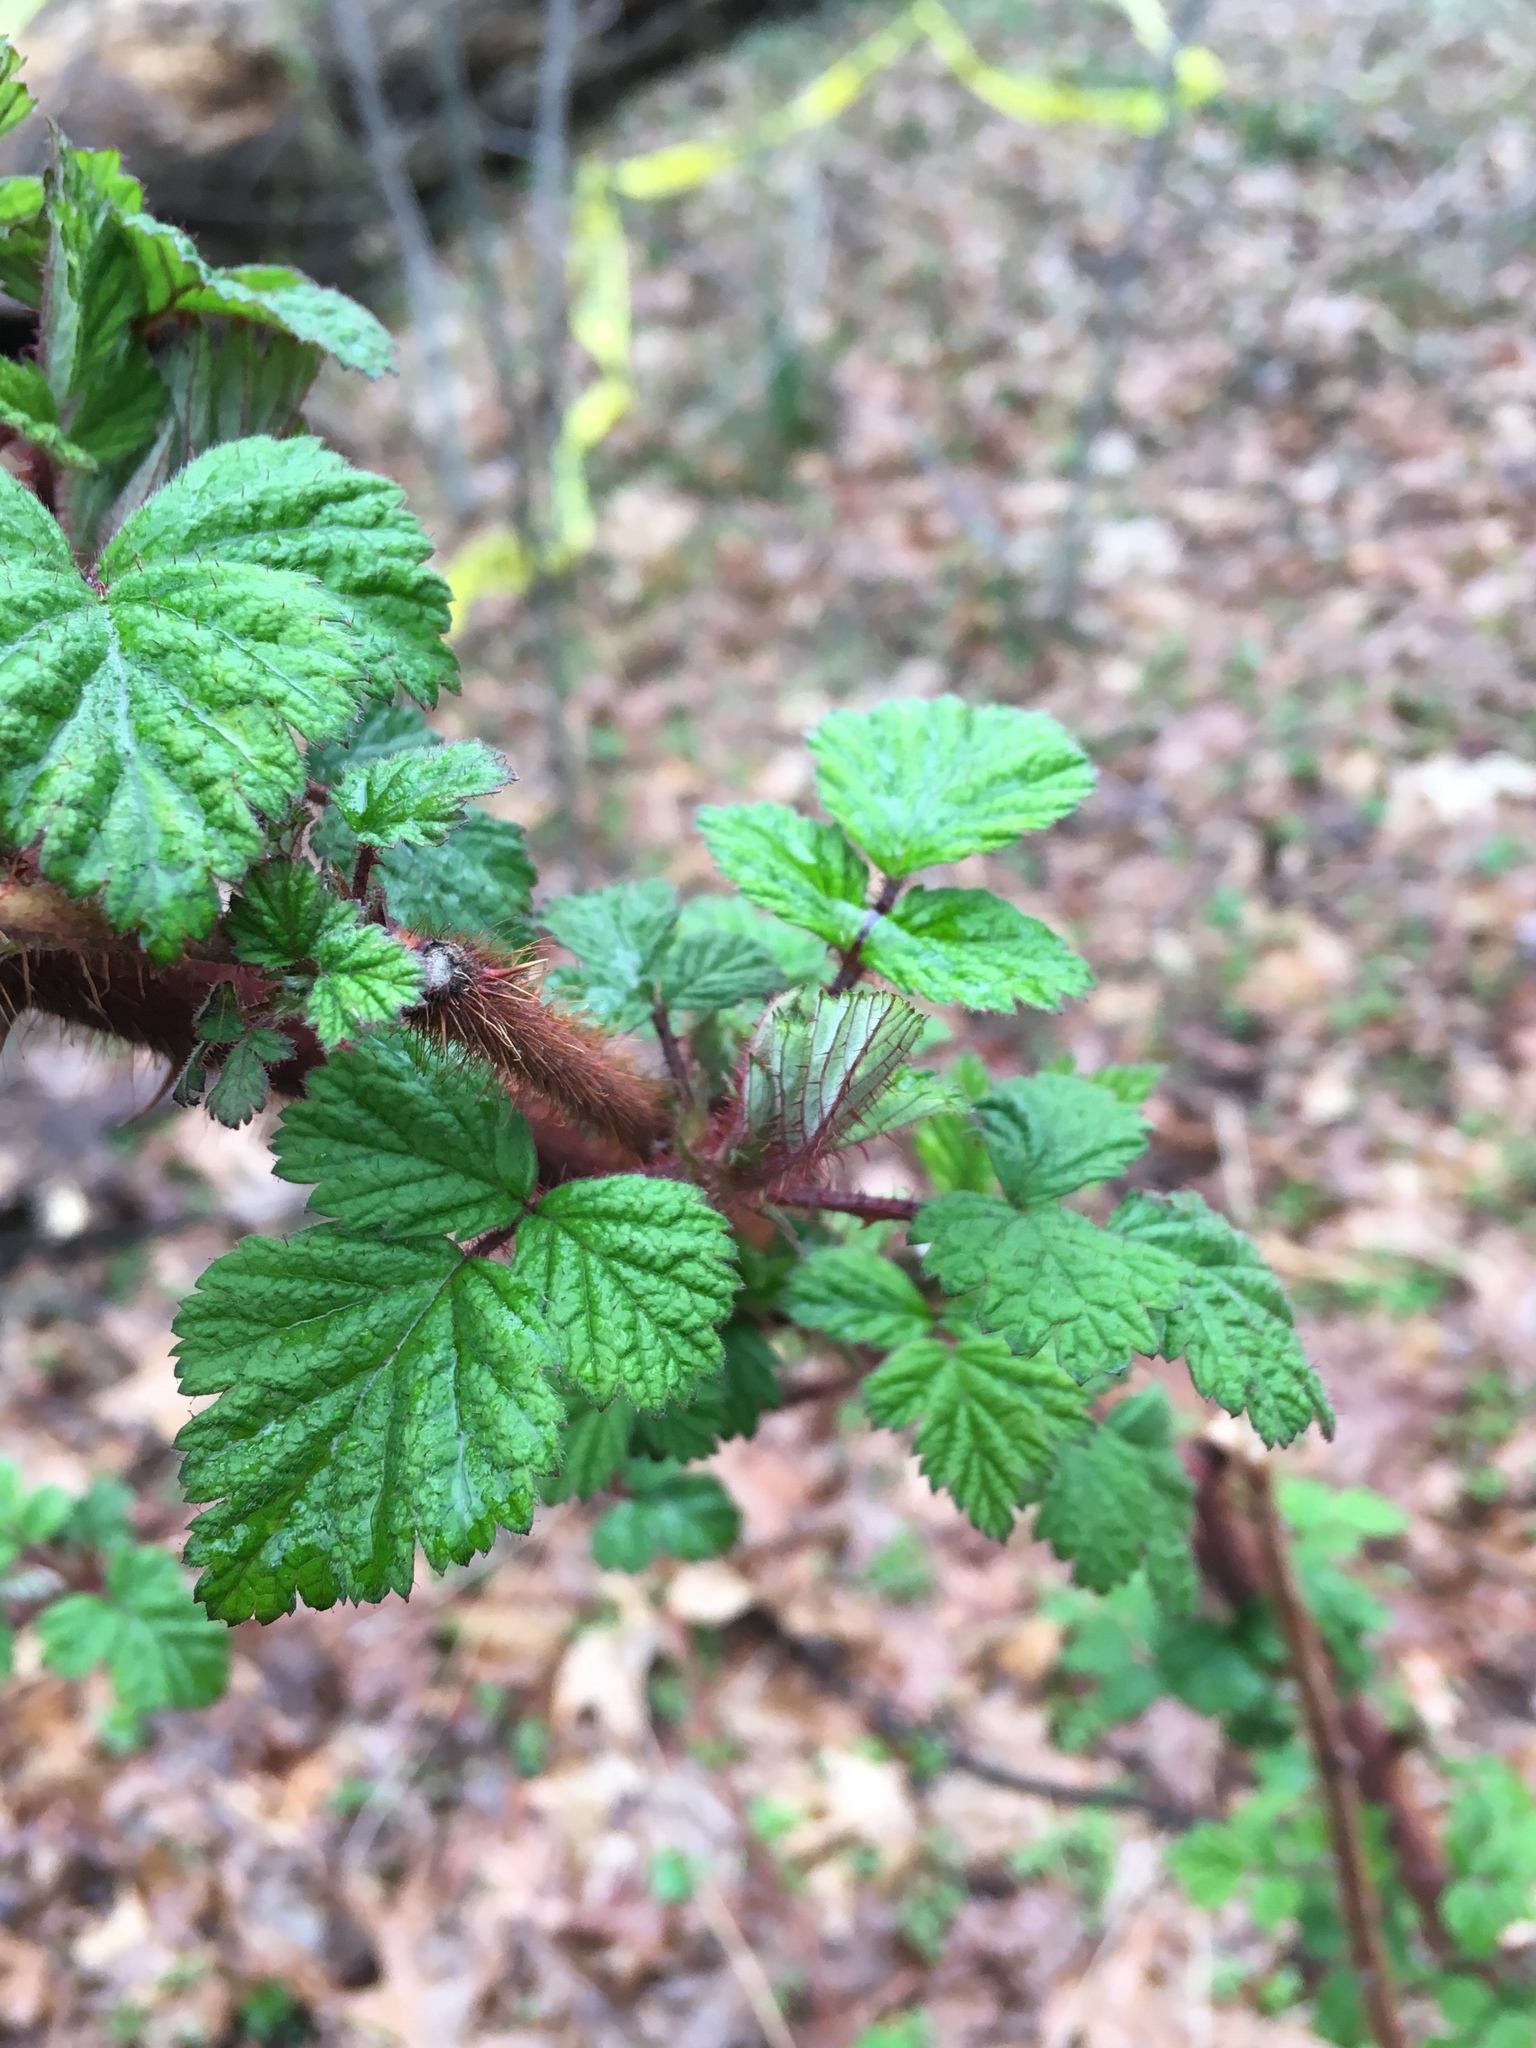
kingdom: Plantae
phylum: Tracheophyta
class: Magnoliopsida
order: Rosales
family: Rosaceae
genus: Rubus
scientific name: Rubus phoenicolasius
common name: Japanese wineberry
